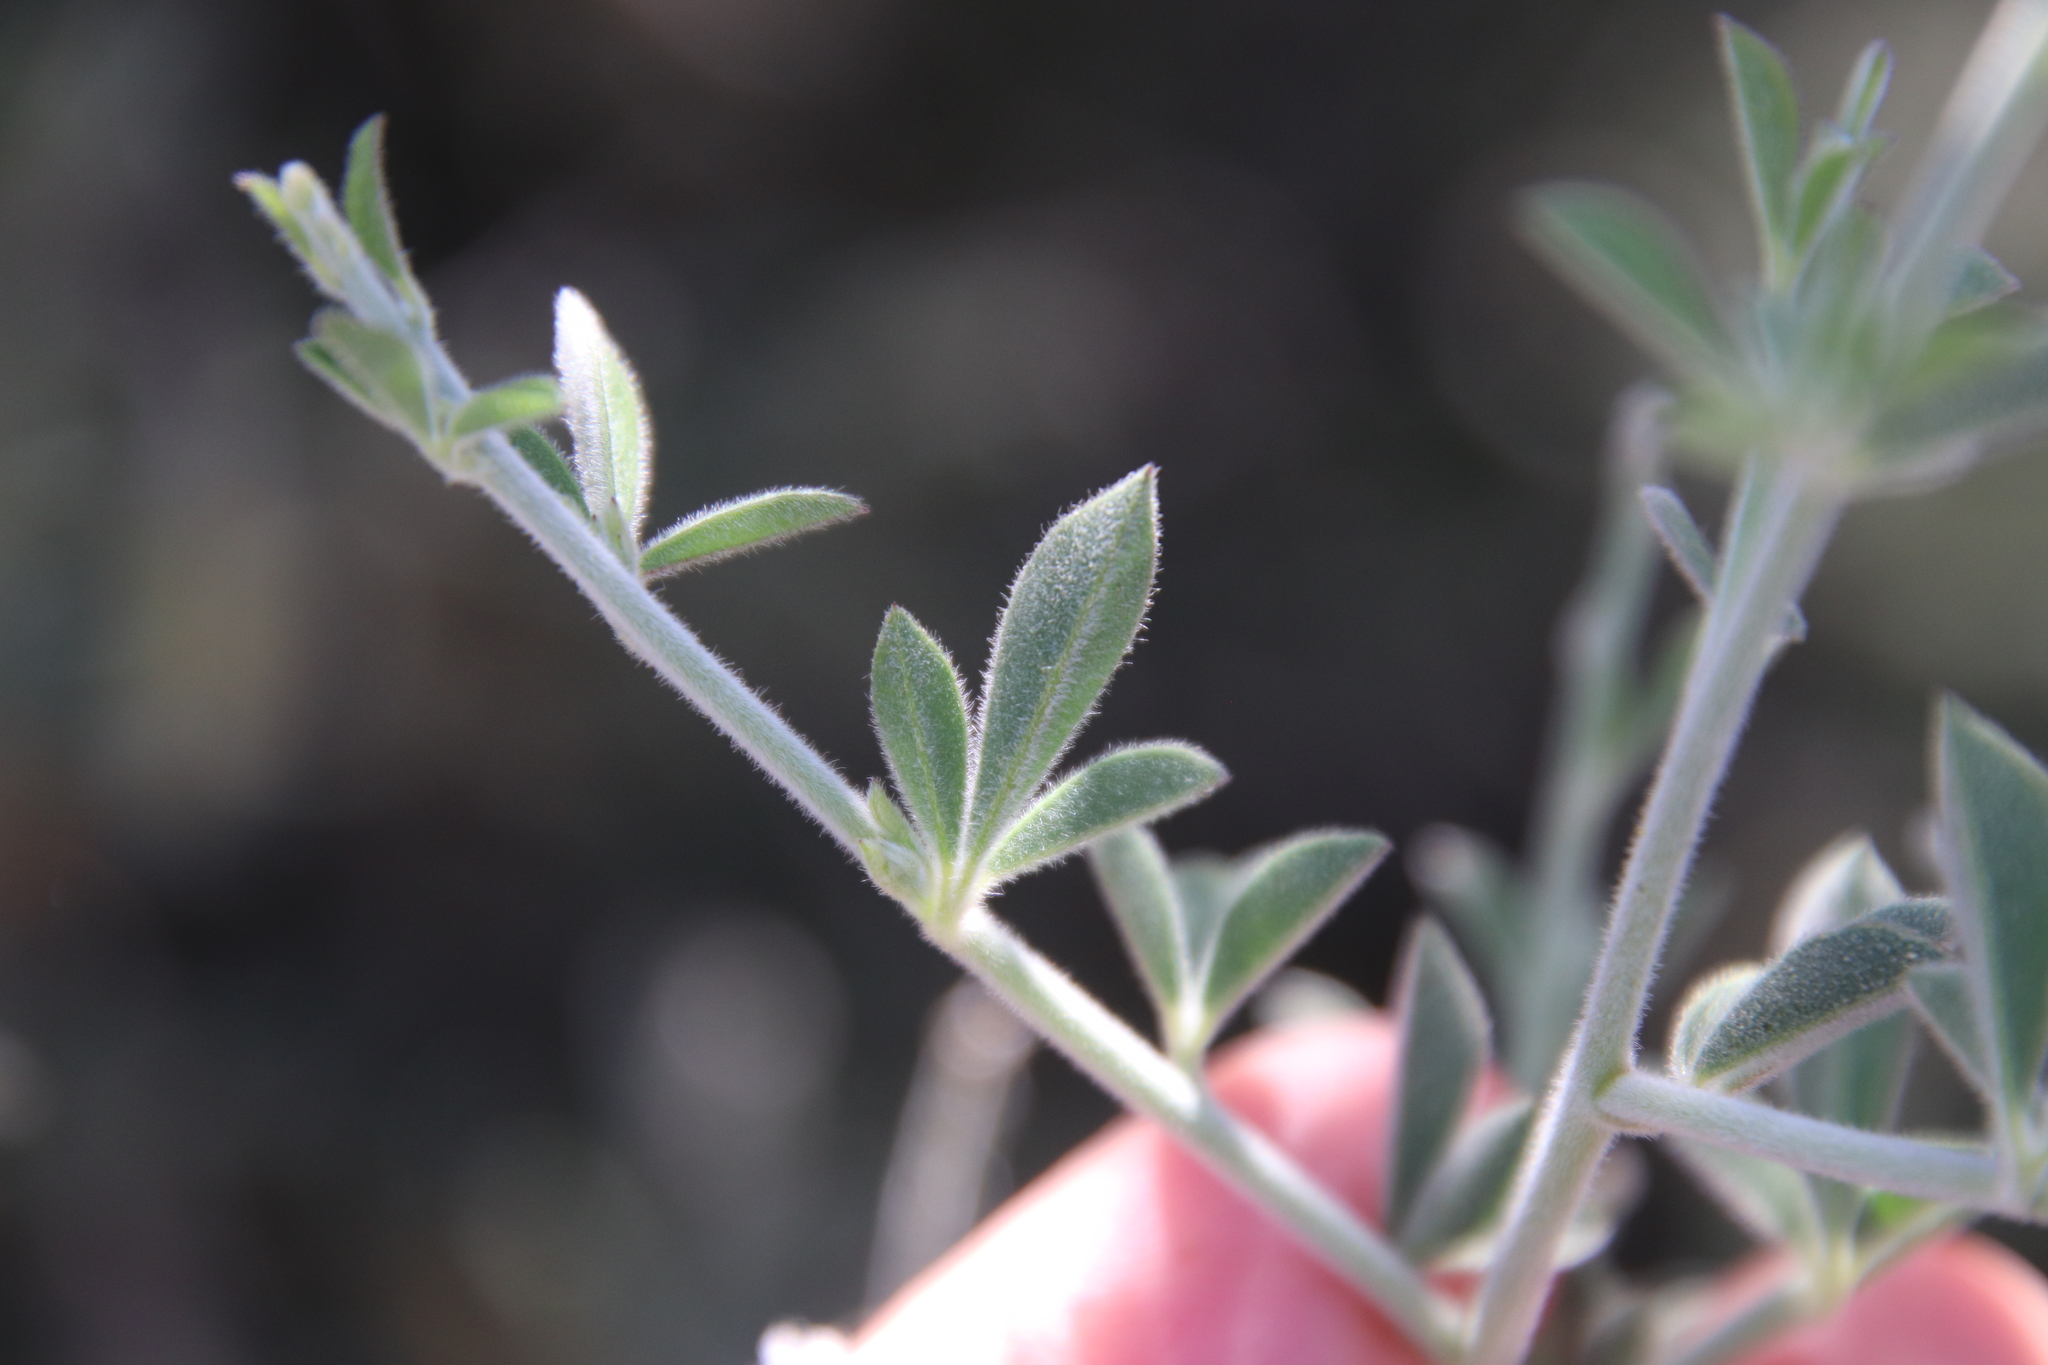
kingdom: Plantae
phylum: Tracheophyta
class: Magnoliopsida
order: Fabales
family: Fabaceae
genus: Pickeringia
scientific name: Pickeringia montana
